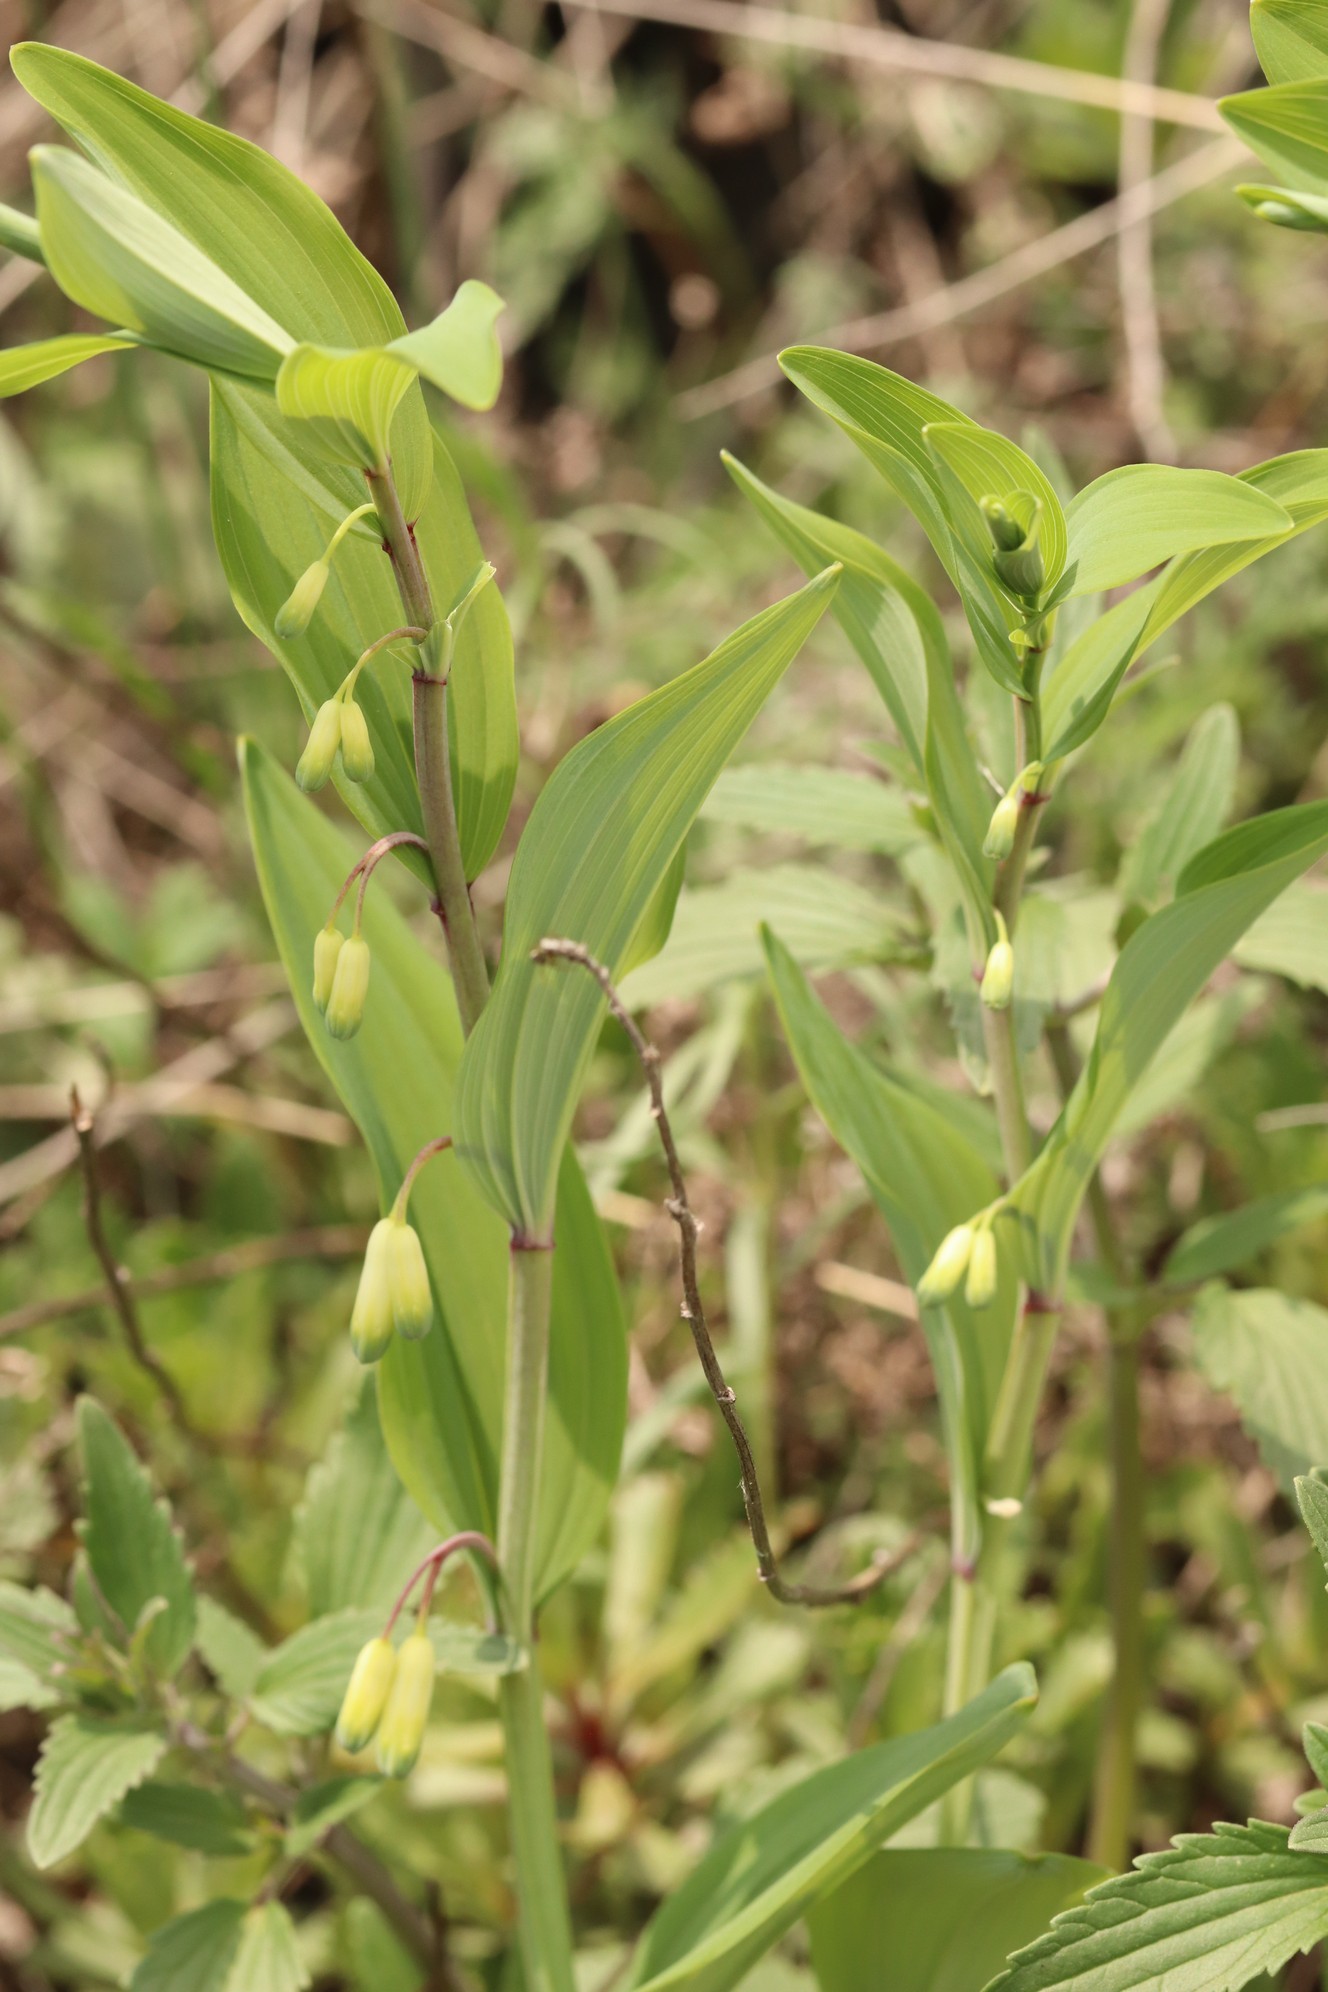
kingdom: Plantae
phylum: Tracheophyta
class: Liliopsida
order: Asparagales
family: Asparagaceae
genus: Polygonatum
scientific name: Polygonatum odoratum
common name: Angular solomon's-seal
